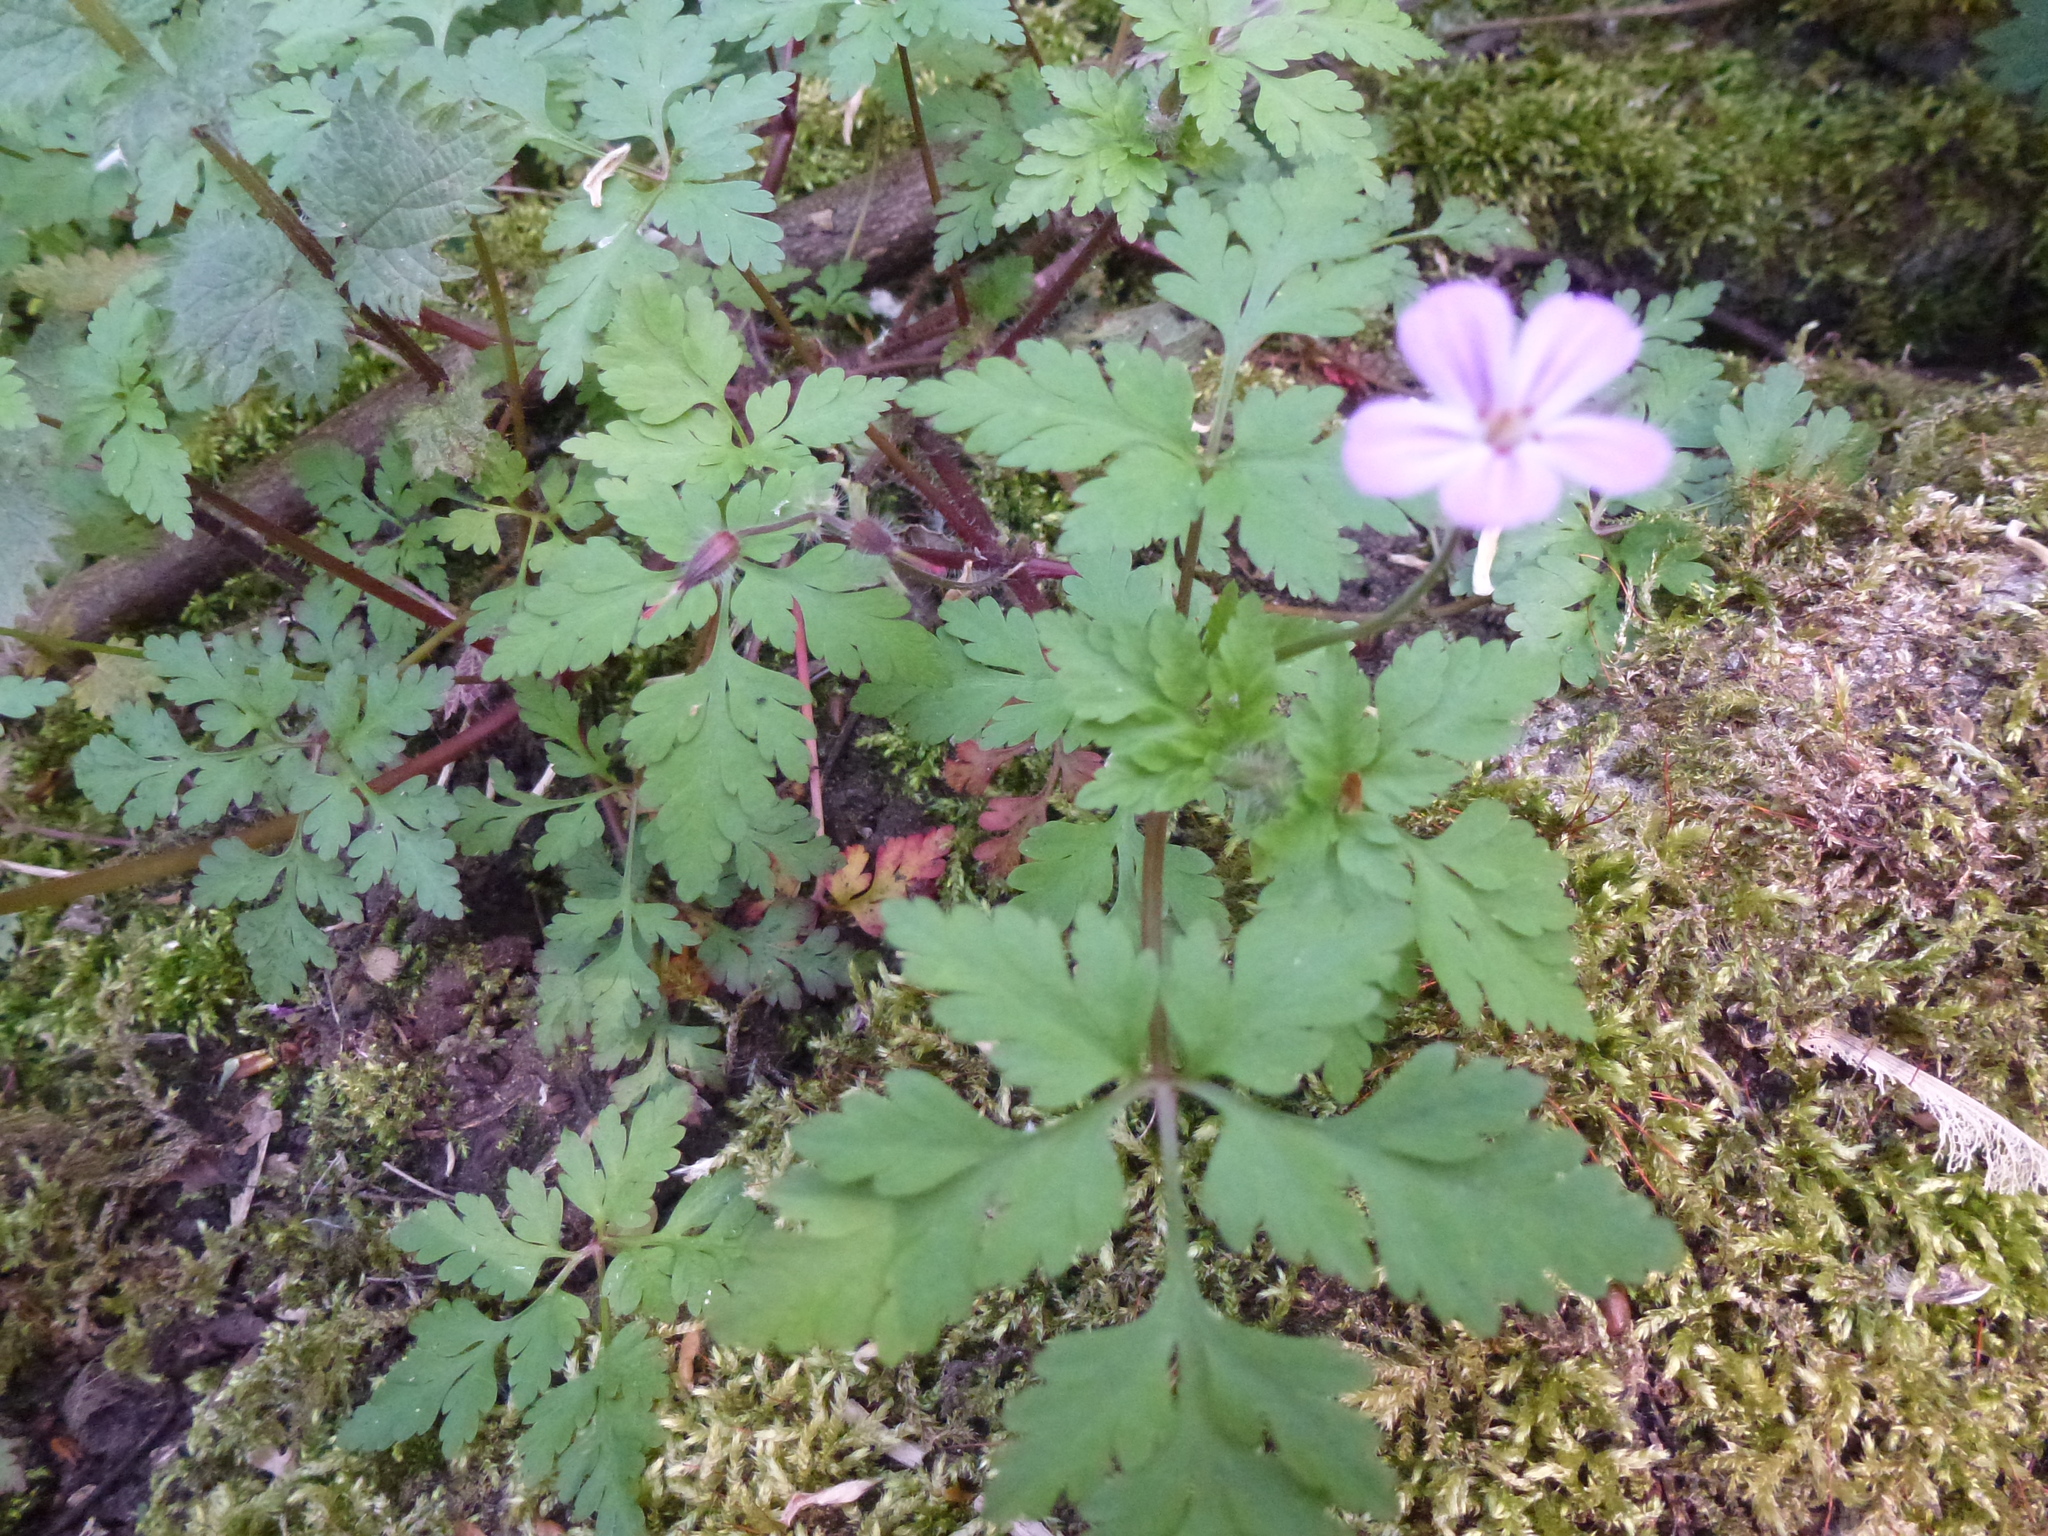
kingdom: Plantae
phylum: Tracheophyta
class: Magnoliopsida
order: Geraniales
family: Geraniaceae
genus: Geranium
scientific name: Geranium robertianum
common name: Herb-robert
